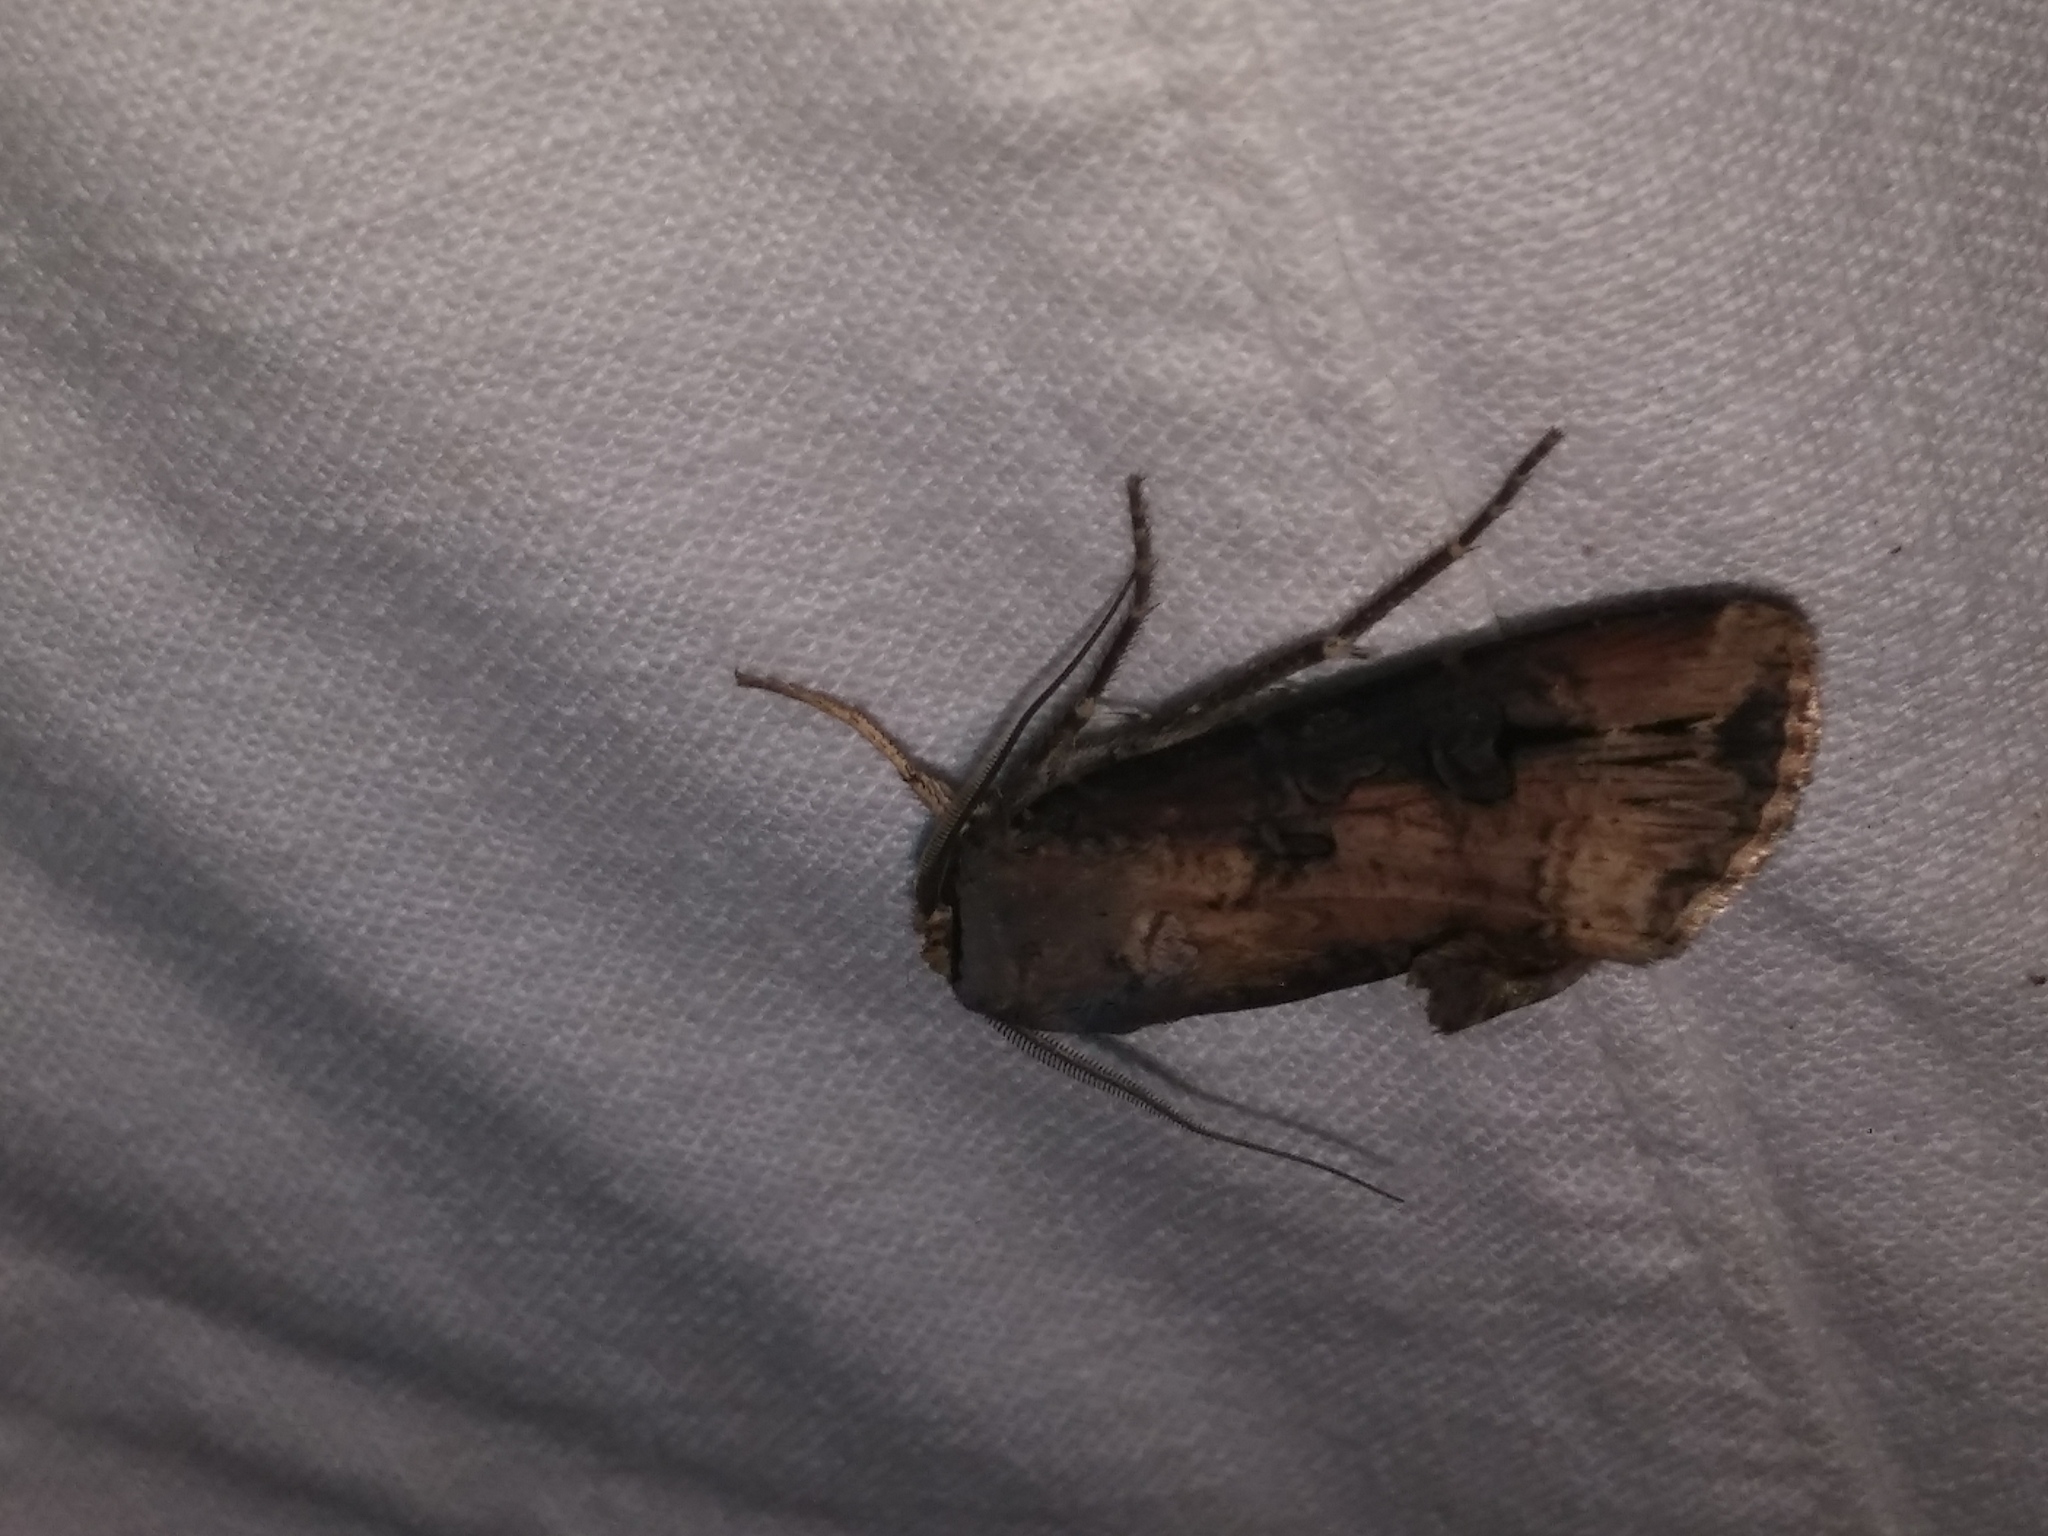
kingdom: Animalia
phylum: Arthropoda
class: Insecta
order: Lepidoptera
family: Noctuidae
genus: Agrotis
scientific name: Agrotis ipsilon
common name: Dark sword-grass
